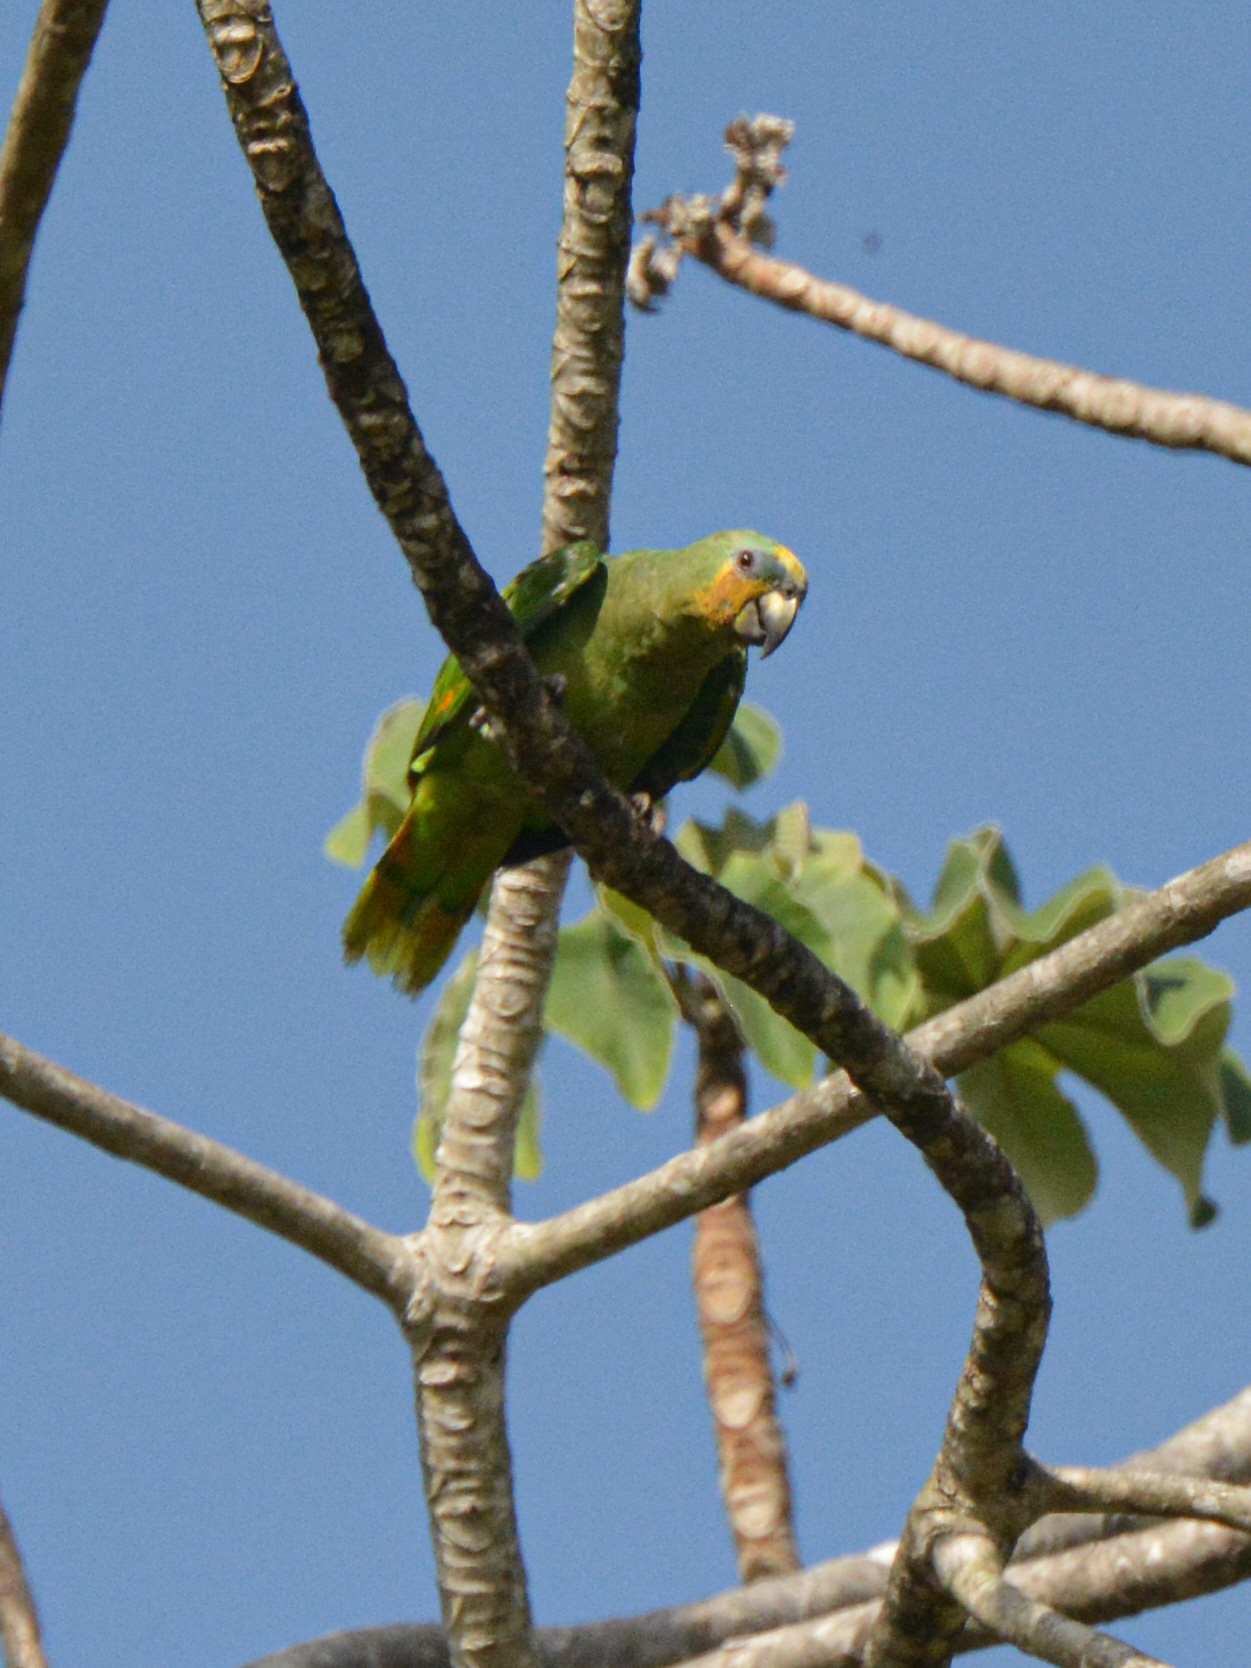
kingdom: Animalia
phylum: Chordata
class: Aves
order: Psittaciformes
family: Psittacidae
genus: Amazona
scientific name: Amazona amazonica
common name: Orange-winged amazon
